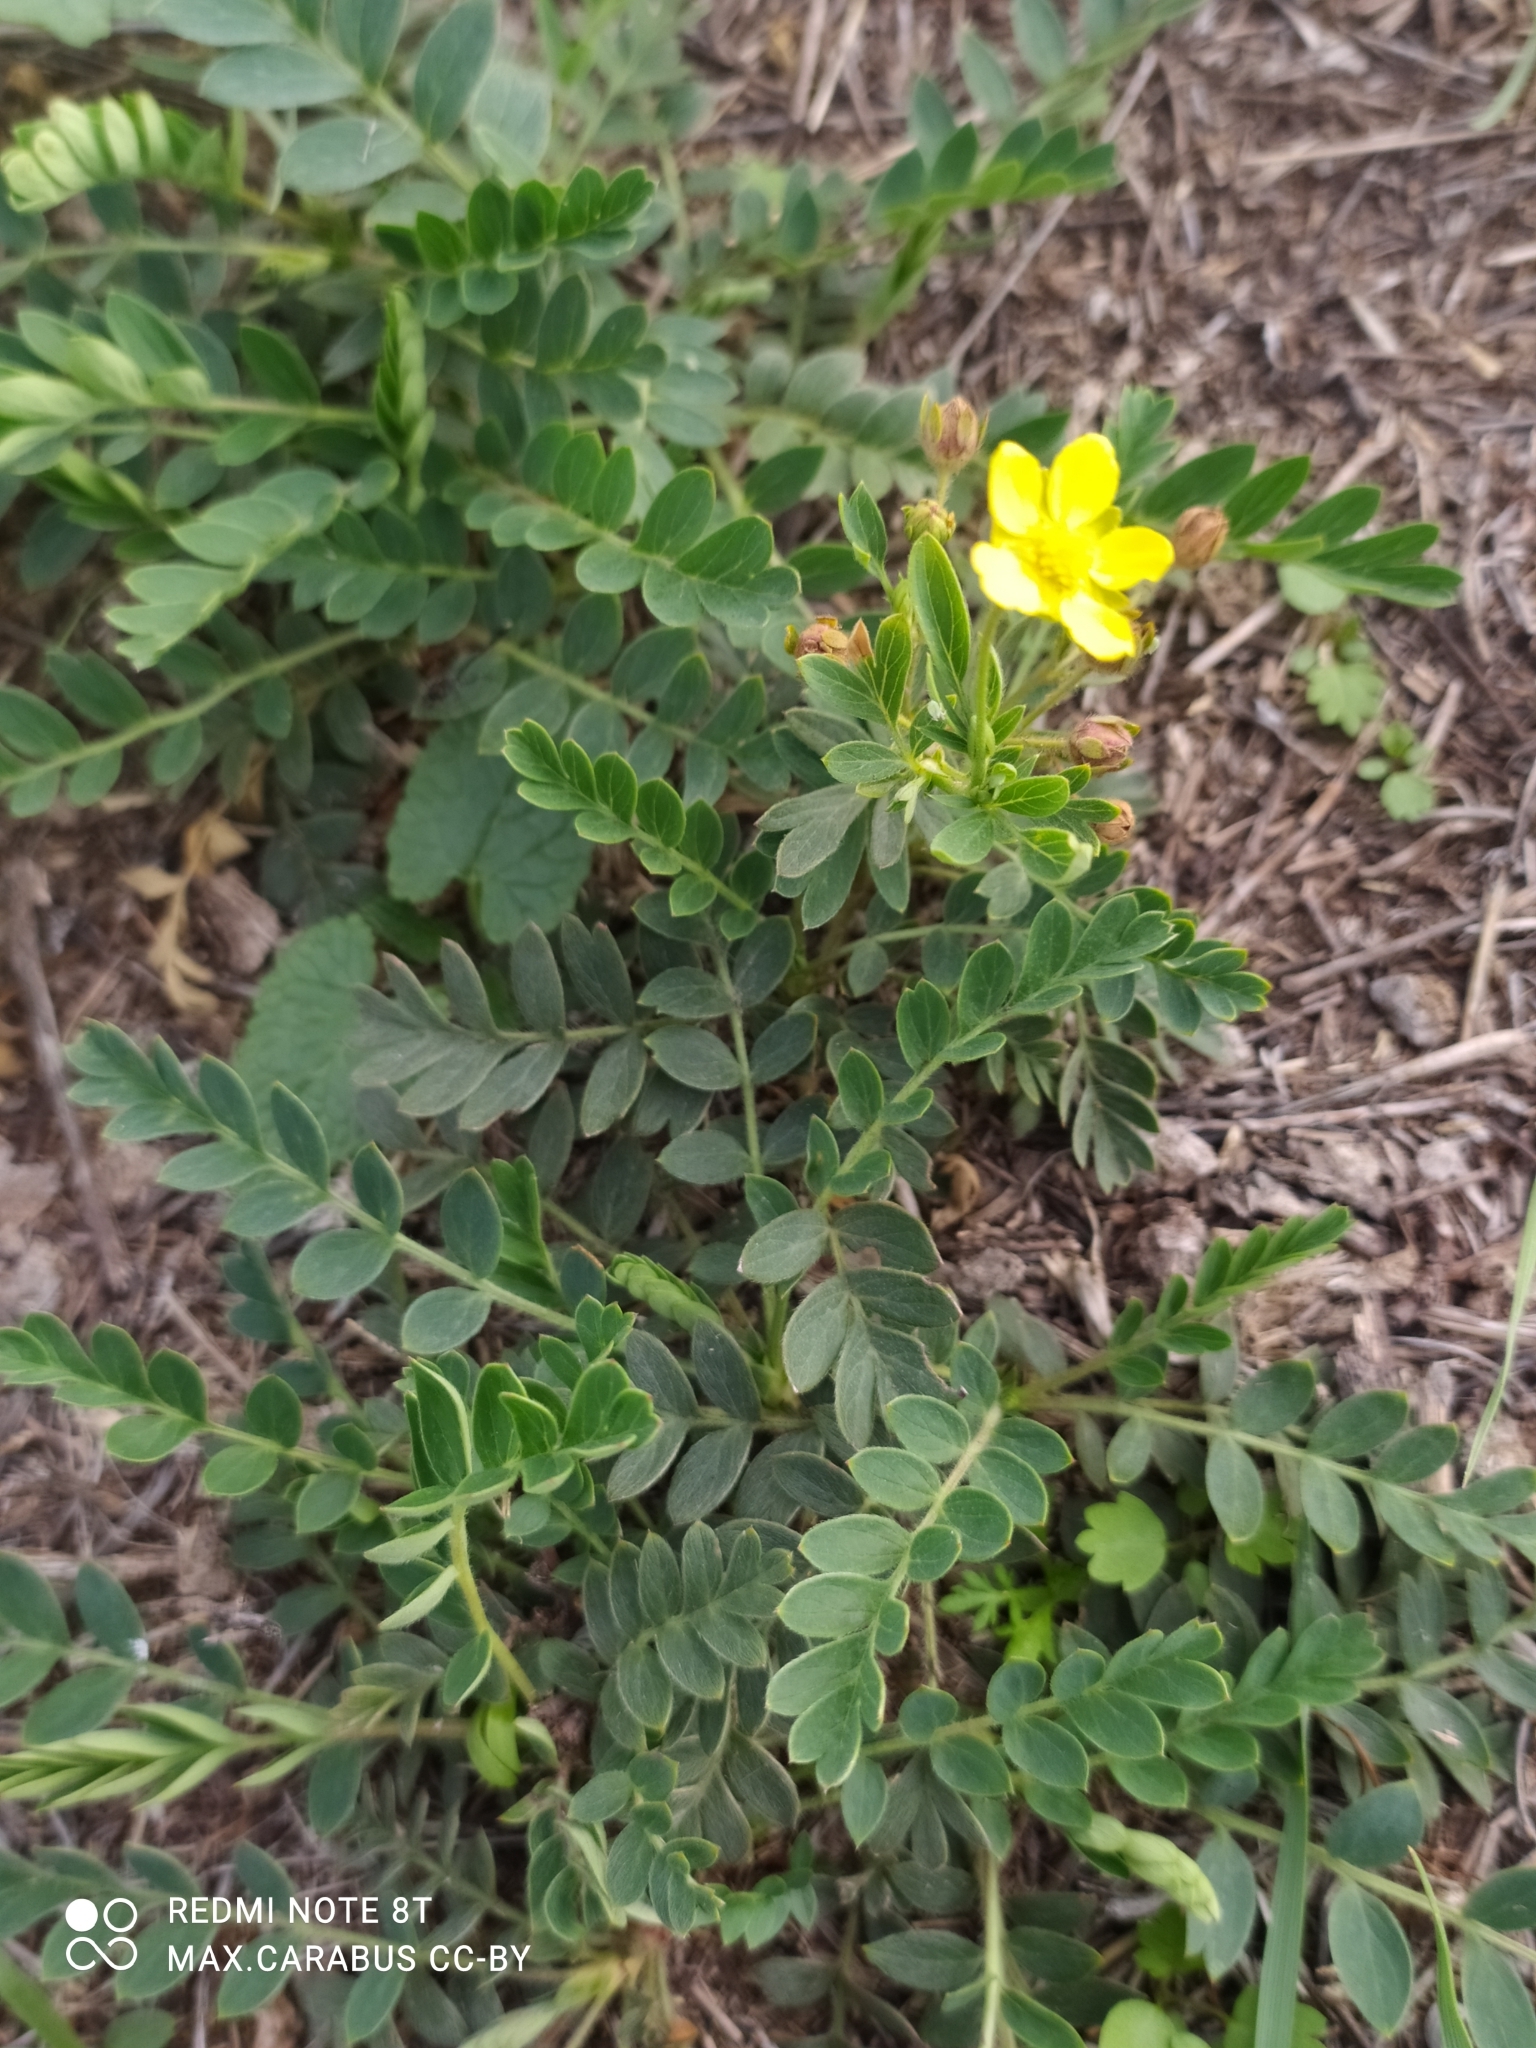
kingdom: Plantae
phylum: Tracheophyta
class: Magnoliopsida
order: Rosales
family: Rosaceae
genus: Sibbaldianthe
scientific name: Sibbaldianthe bifurca
